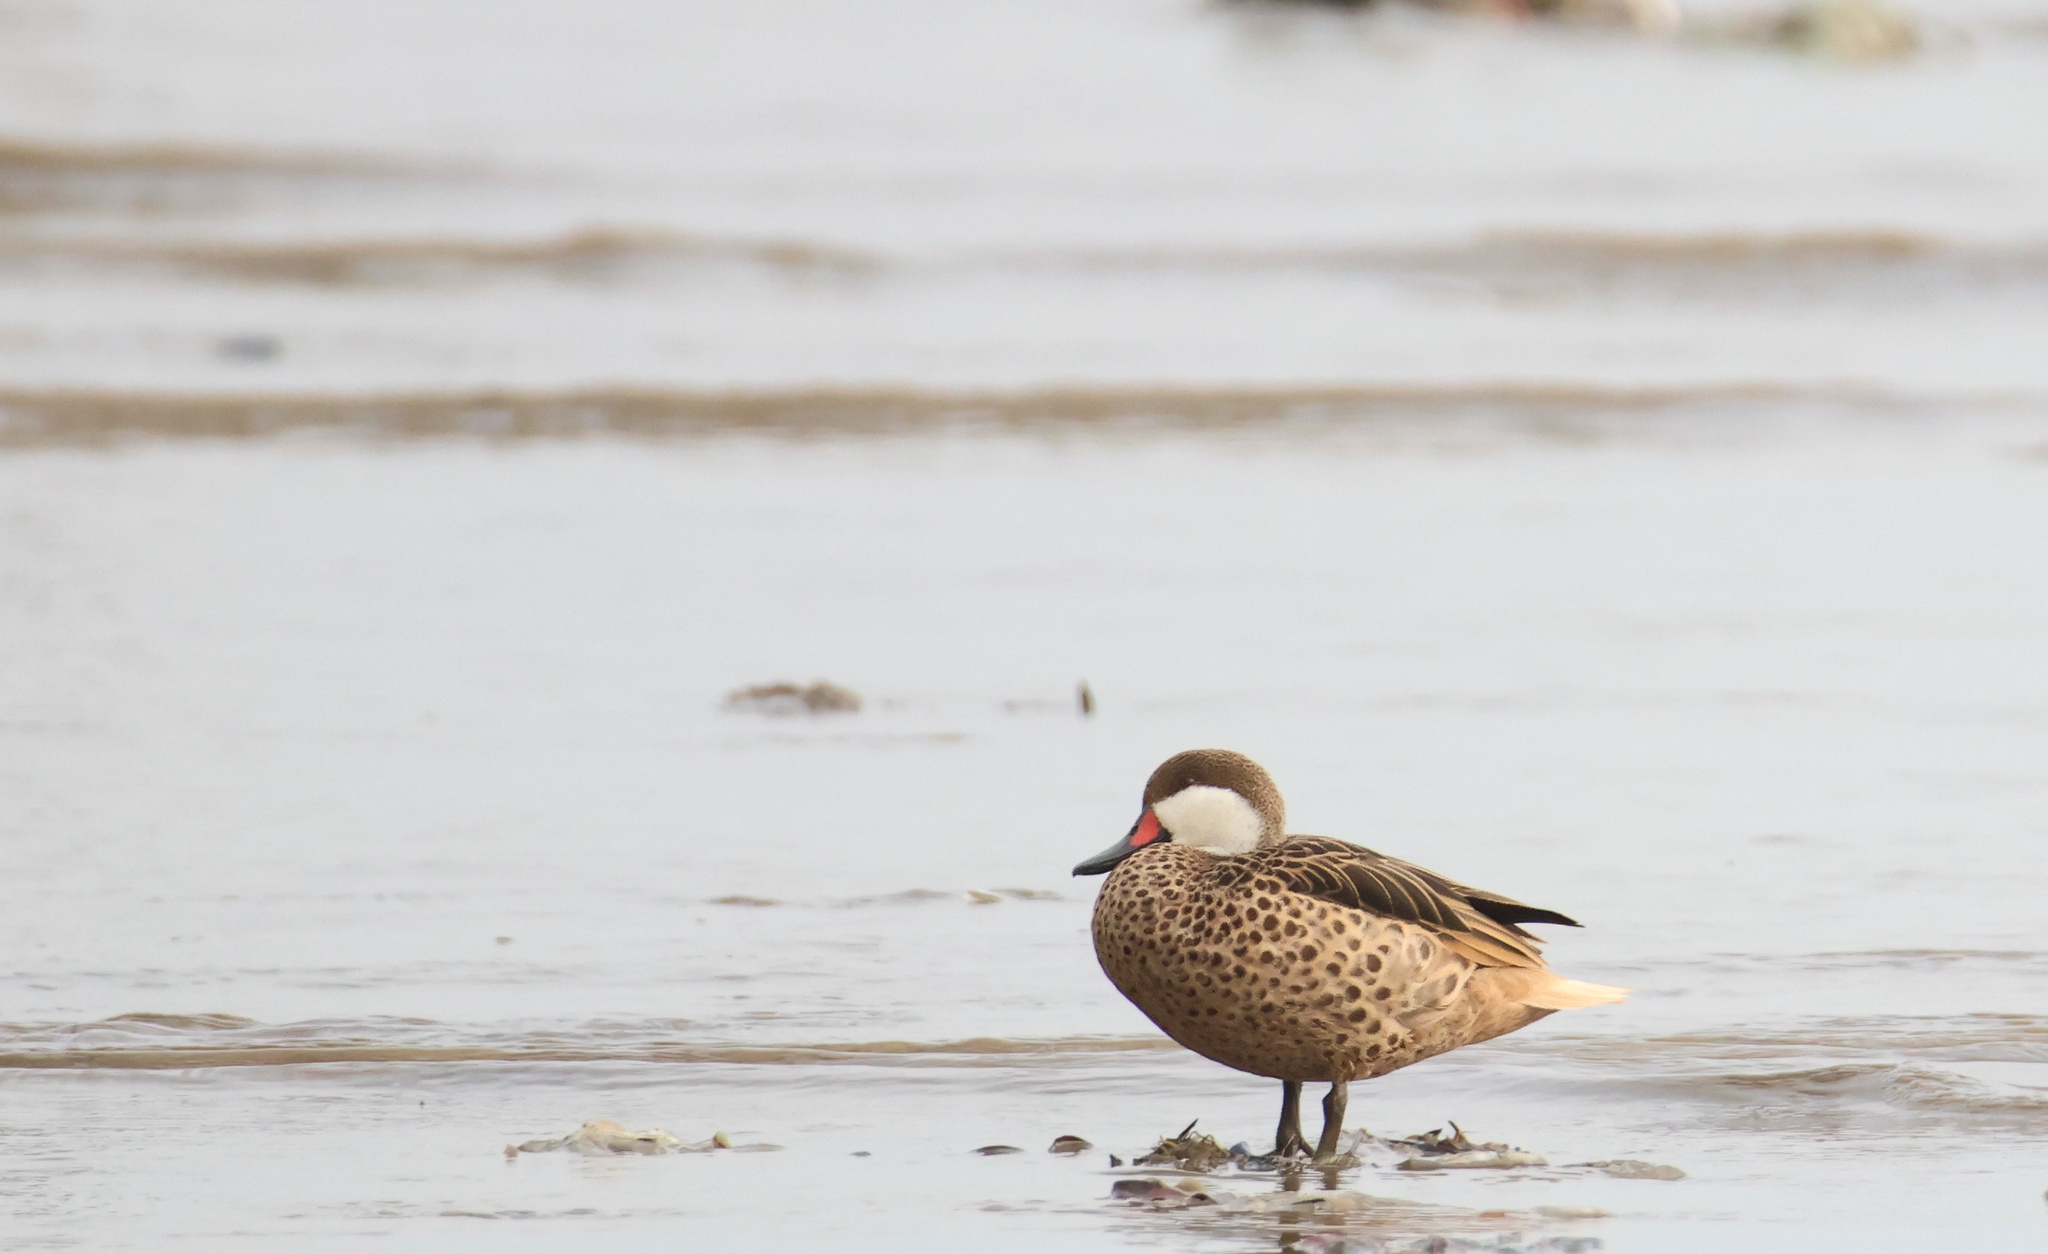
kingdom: Animalia
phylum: Chordata
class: Aves
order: Anseriformes
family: Anatidae
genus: Anas
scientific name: Anas bahamensis
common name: White-cheeked pintail
